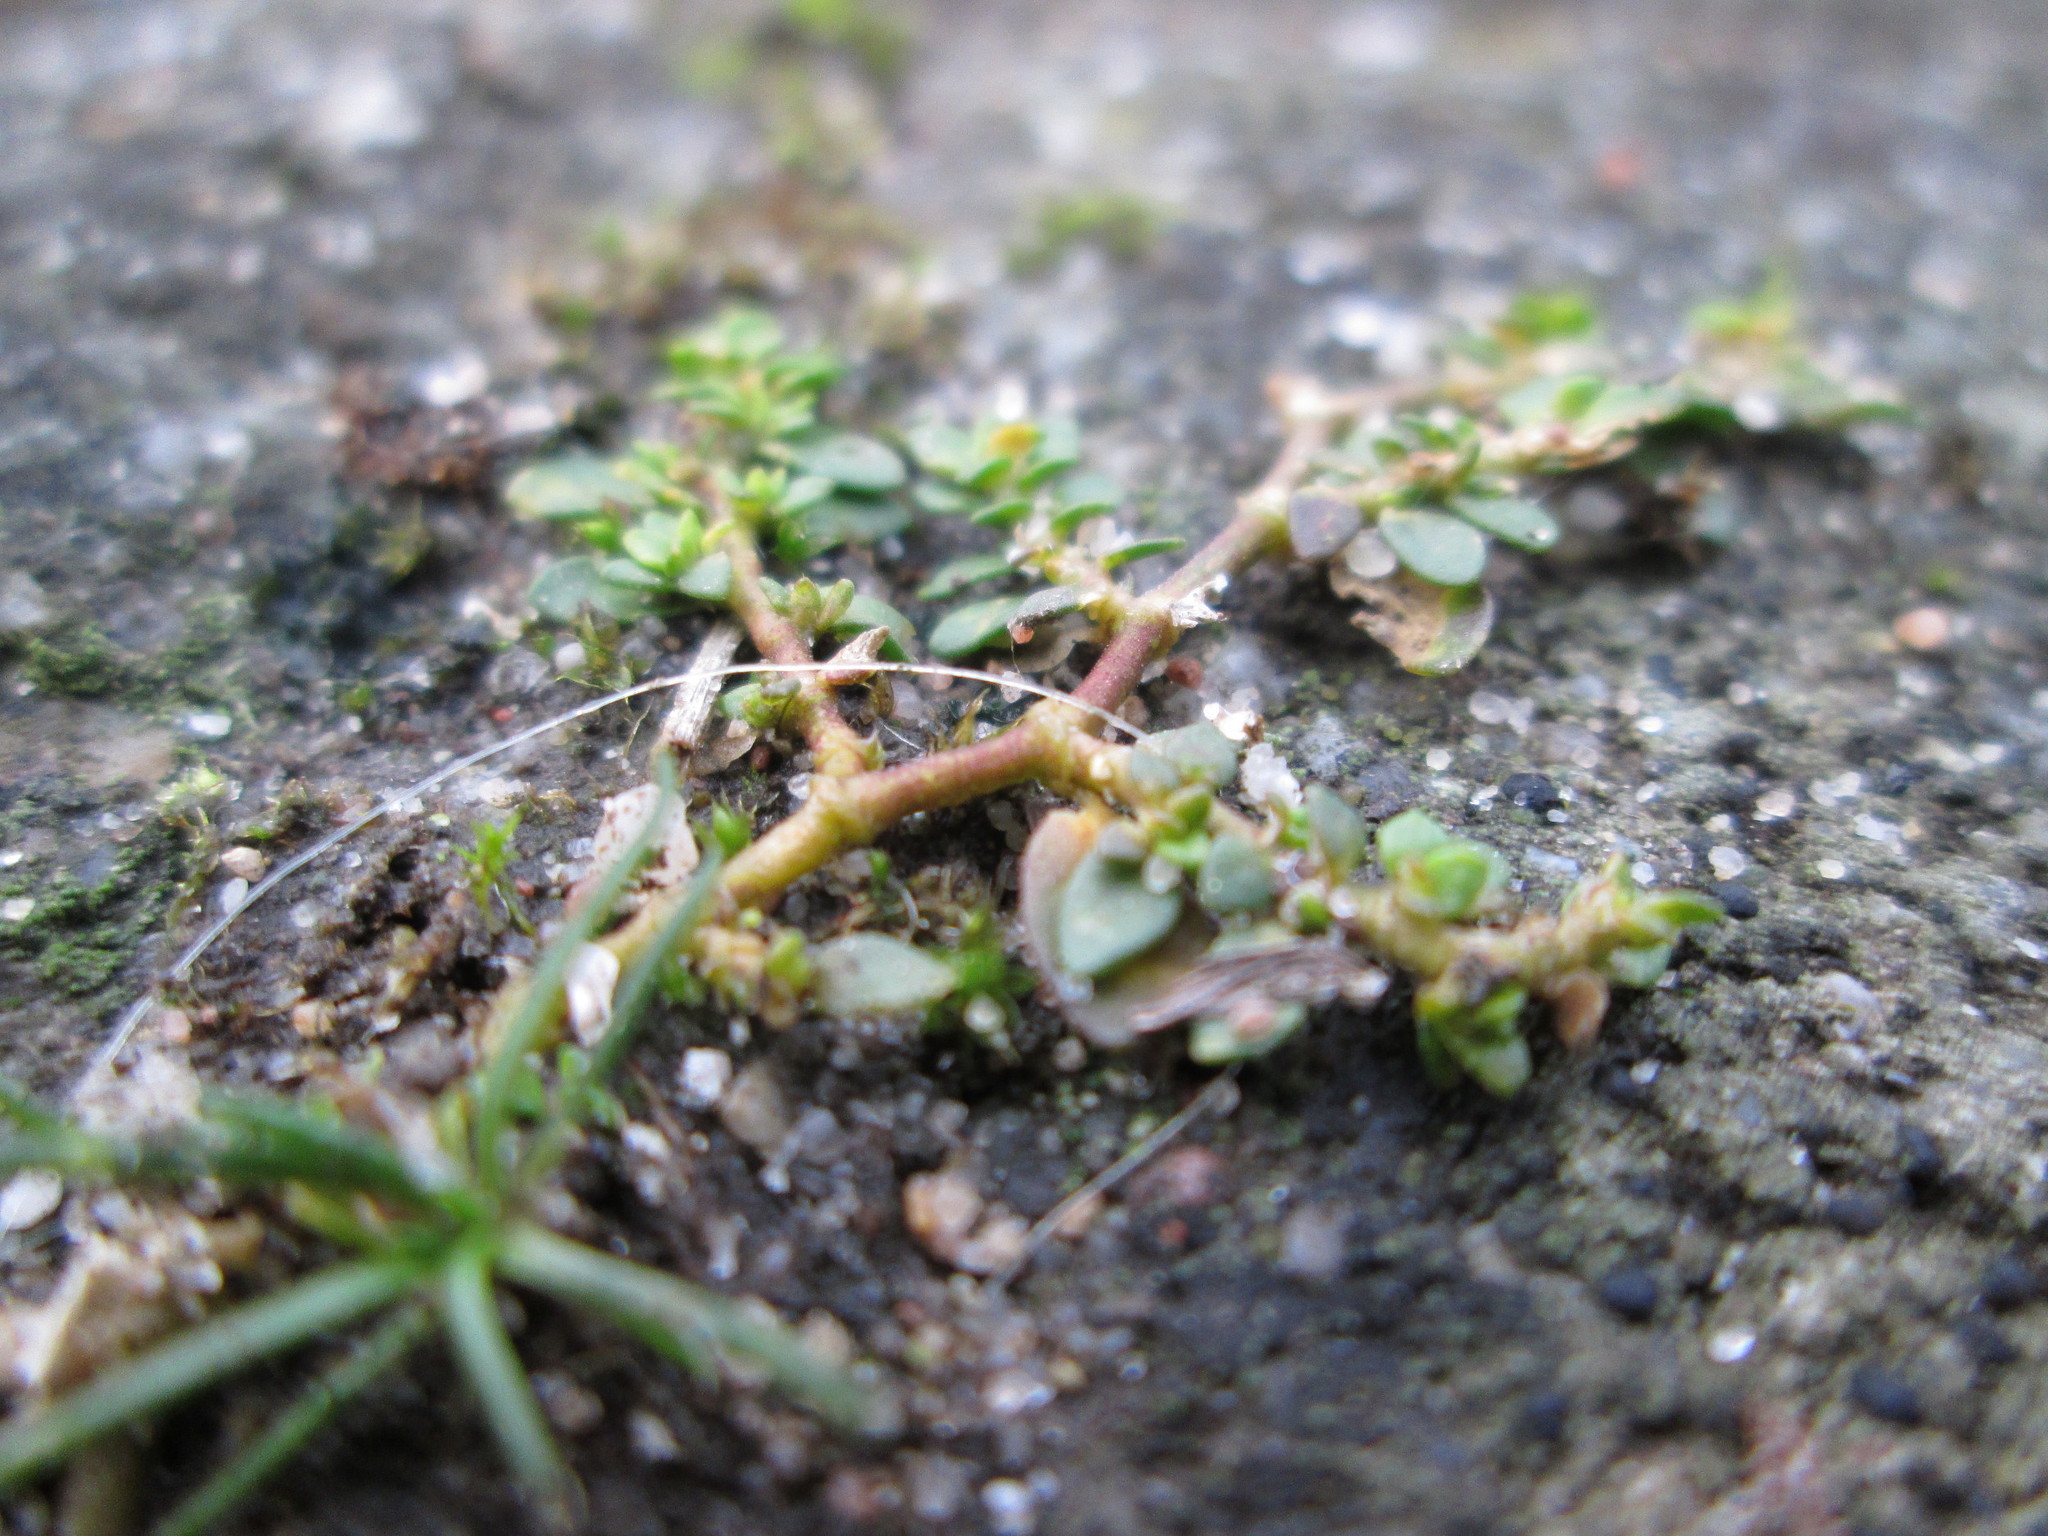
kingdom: Plantae
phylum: Tracheophyta
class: Magnoliopsida
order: Caryophyllales
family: Caryophyllaceae
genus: Herniaria
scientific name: Herniaria glabra
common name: Smooth rupturewort
